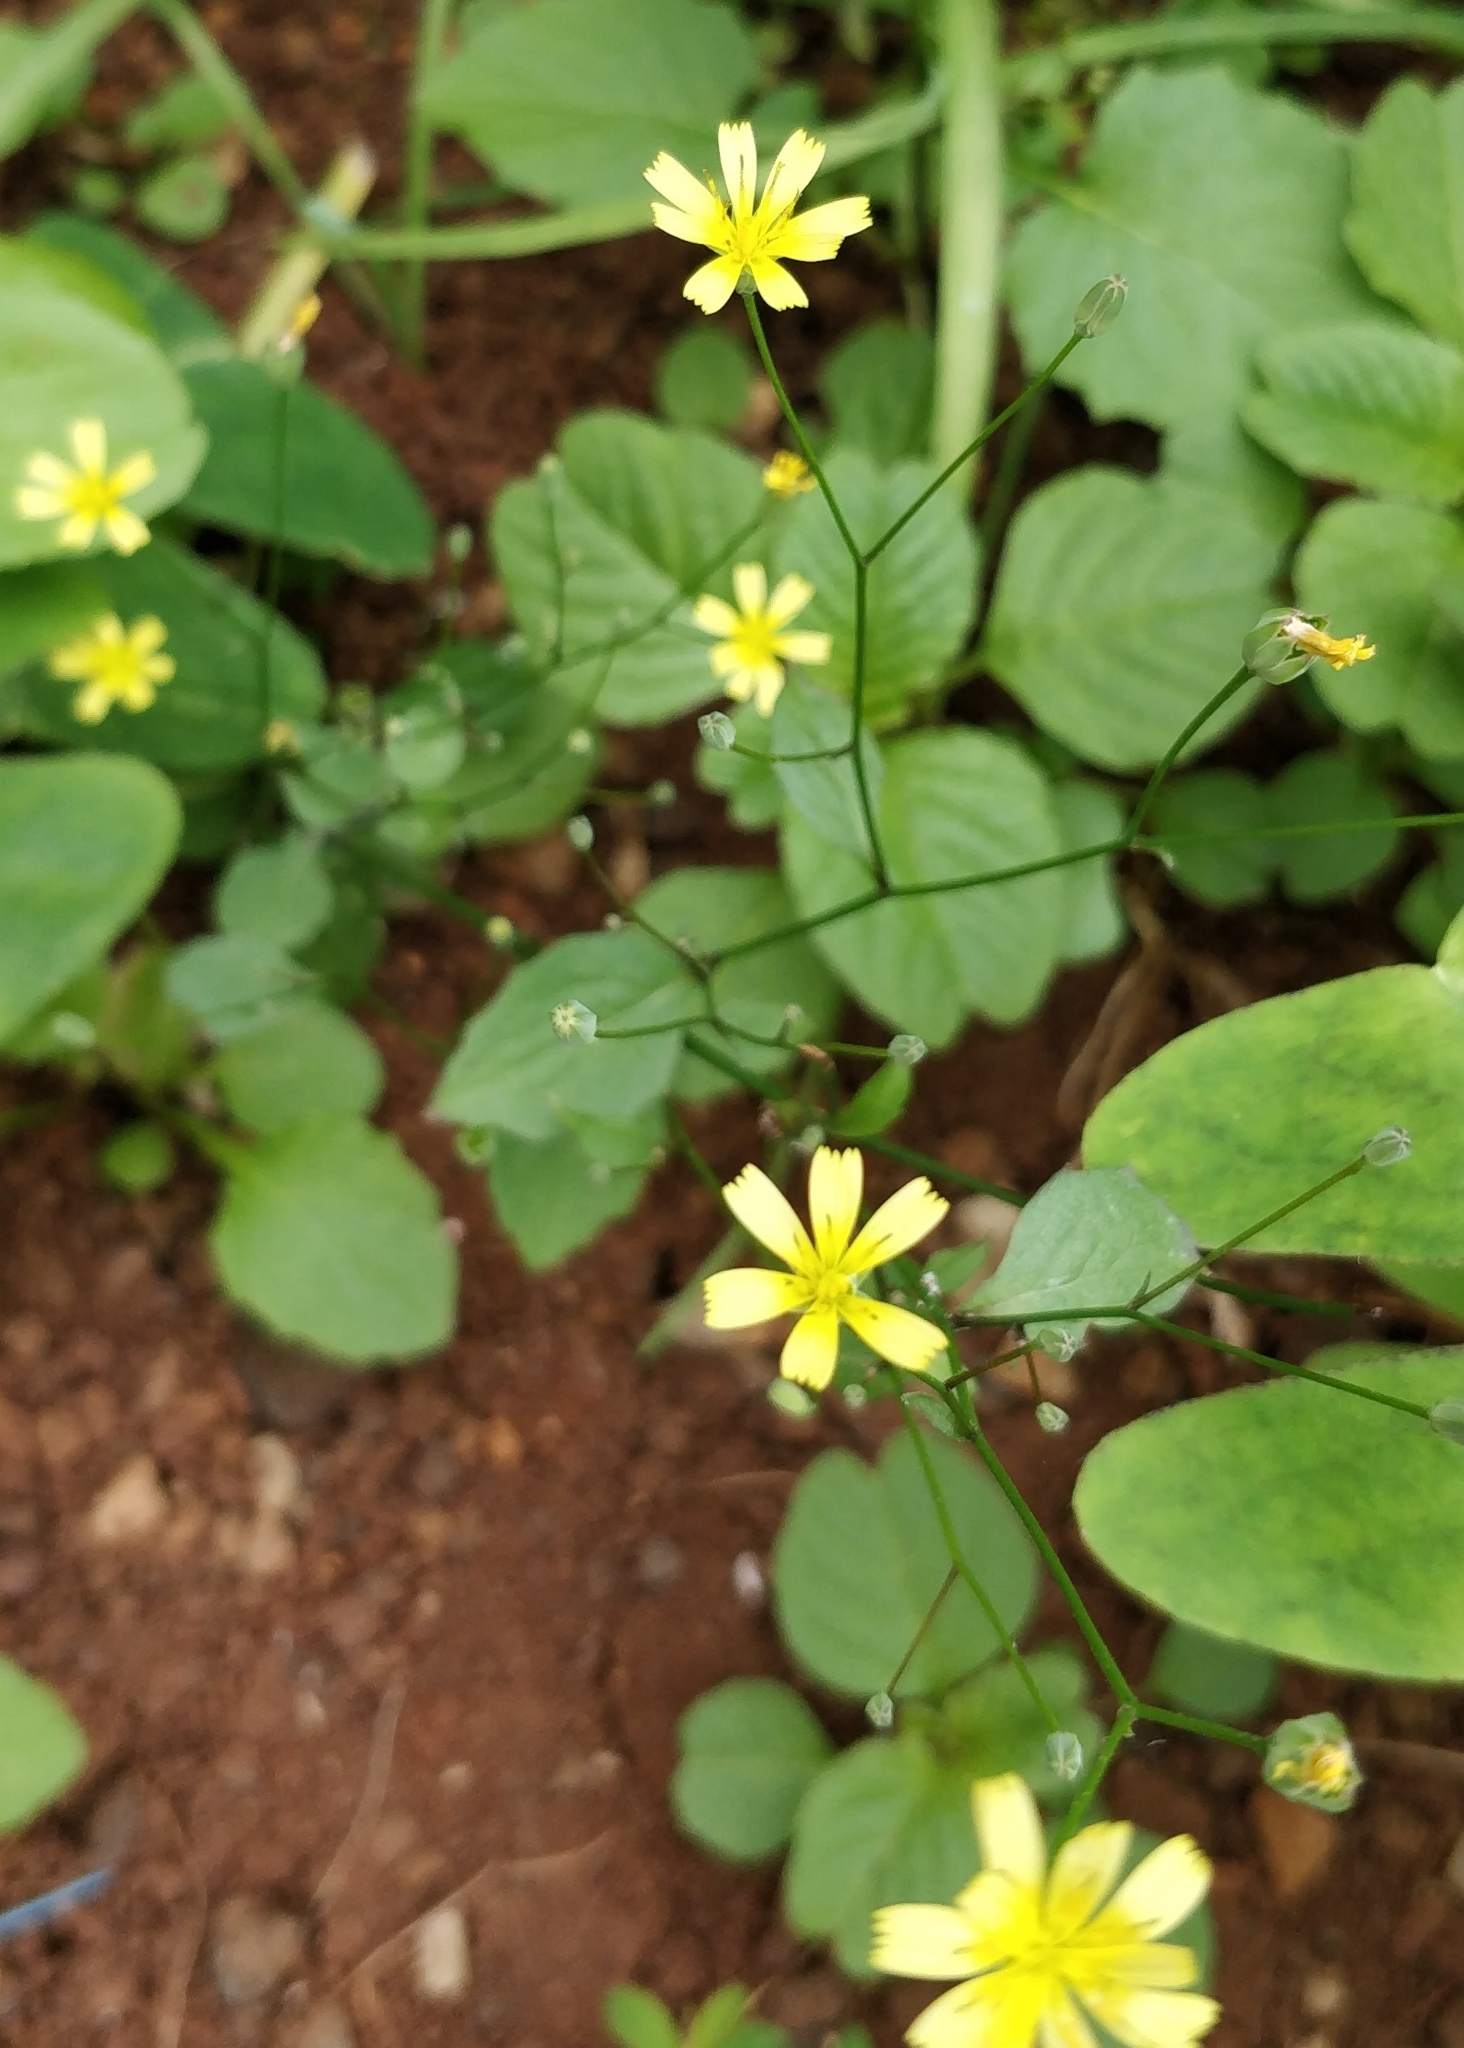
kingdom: Plantae
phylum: Tracheophyta
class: Magnoliopsida
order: Asterales
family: Asteraceae
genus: Lapsana
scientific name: Lapsana communis
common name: Nipplewort
